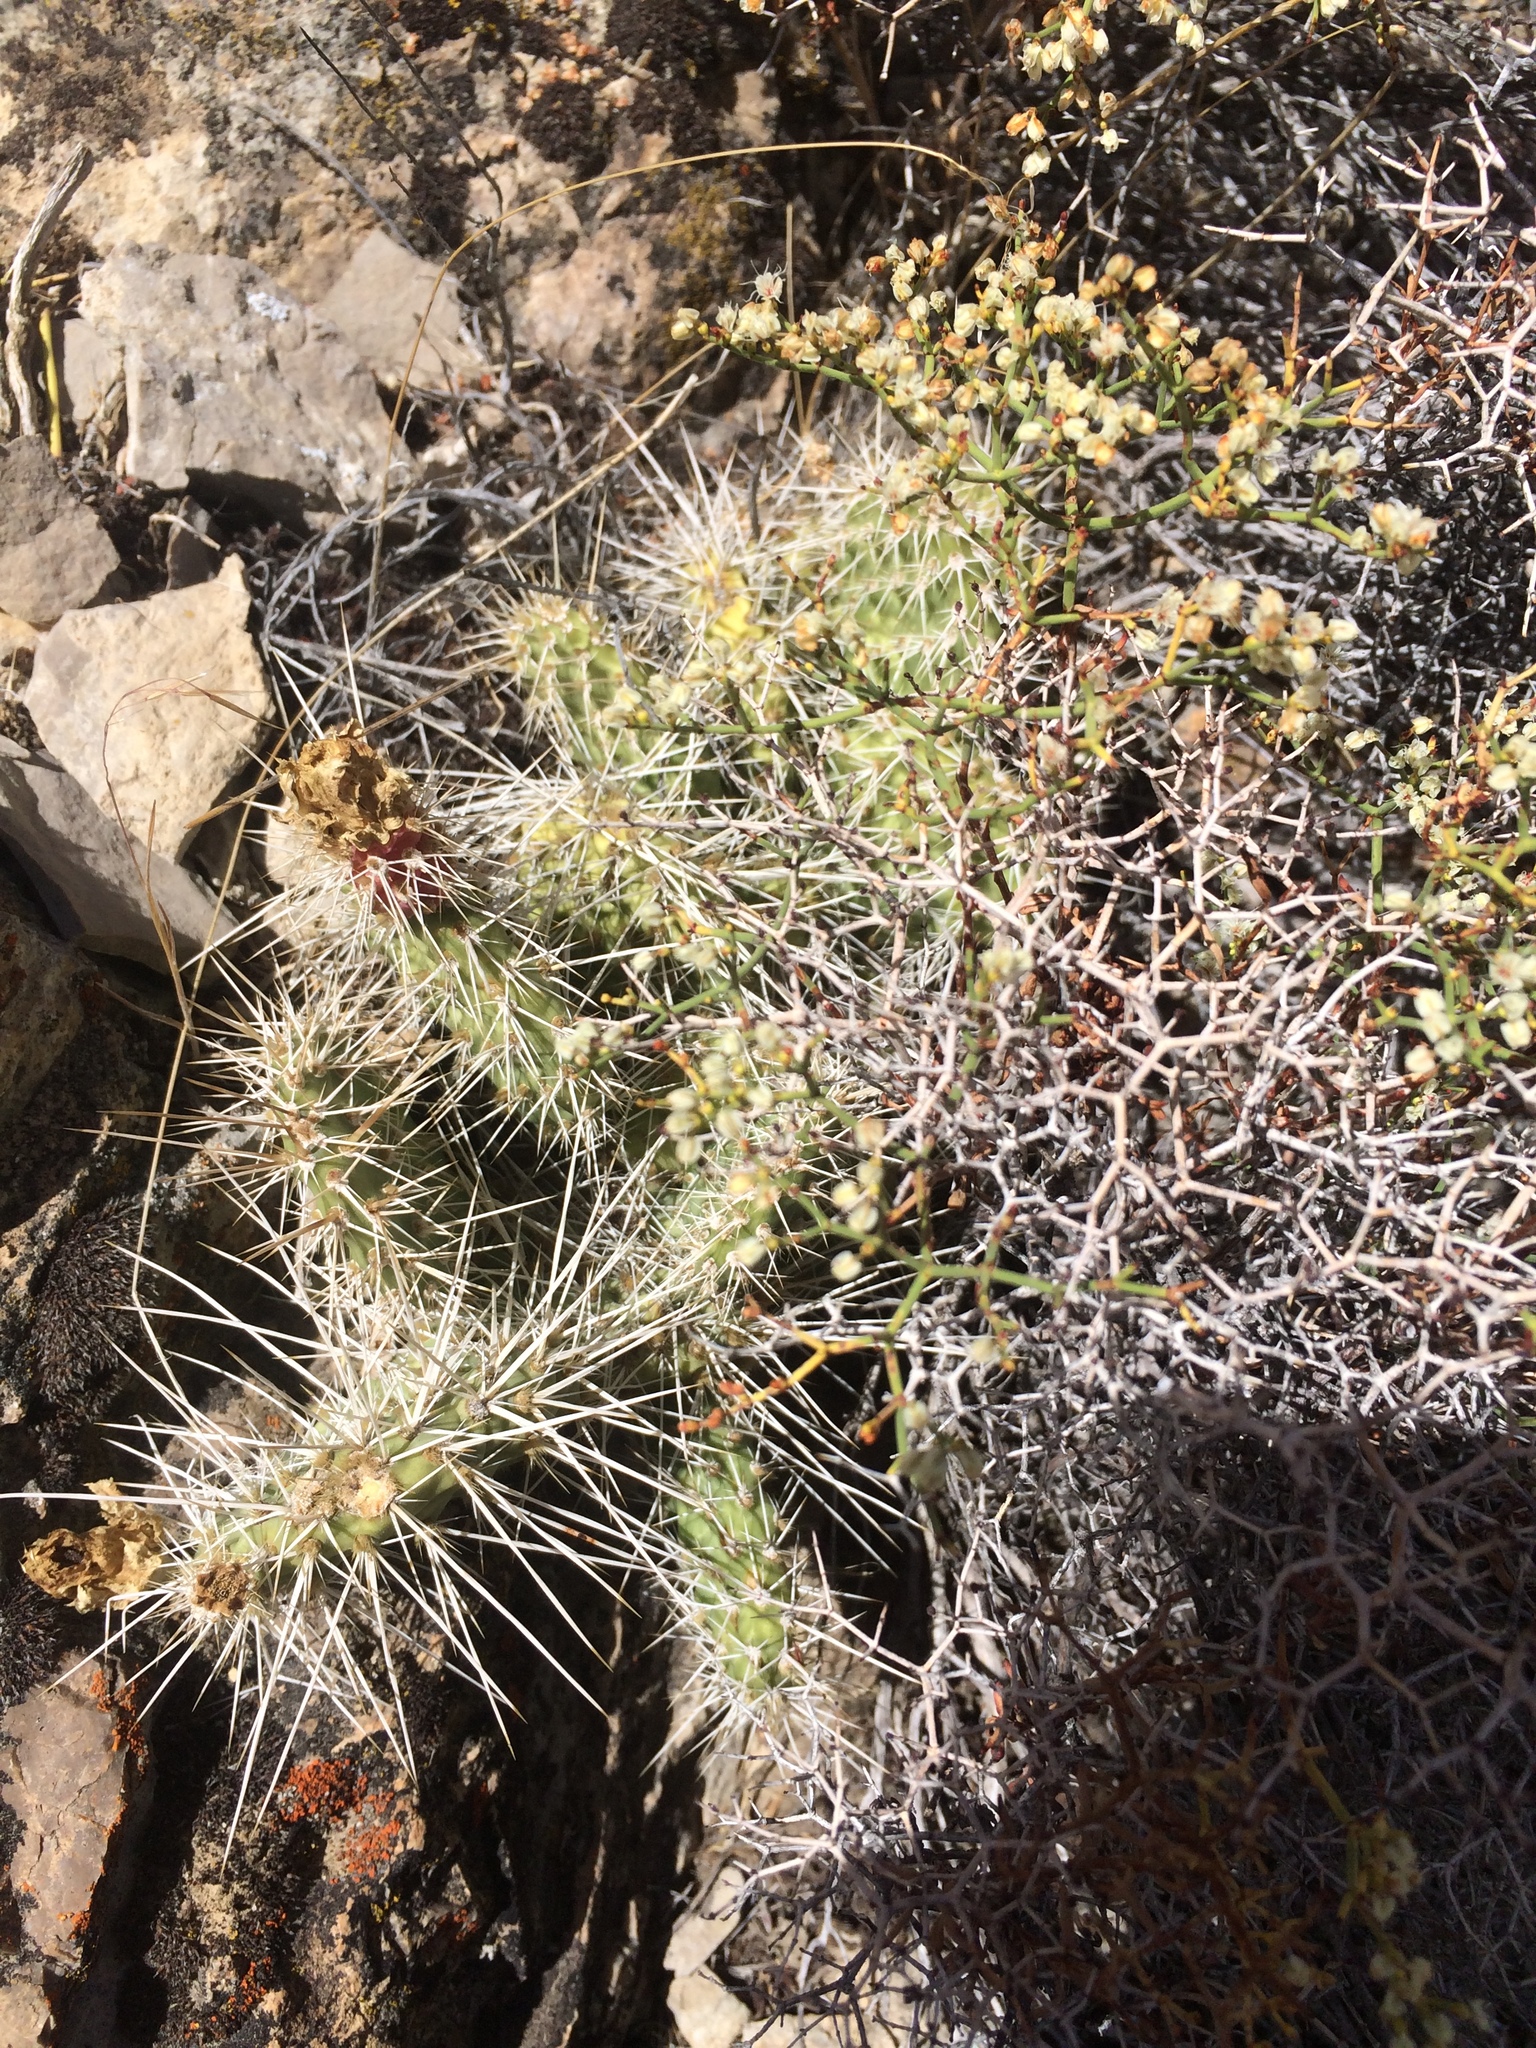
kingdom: Plantae
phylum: Tracheophyta
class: Magnoliopsida
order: Caryophyllales
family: Cactaceae
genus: Opuntia
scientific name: Opuntia polyacantha
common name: Plains prickly-pear
